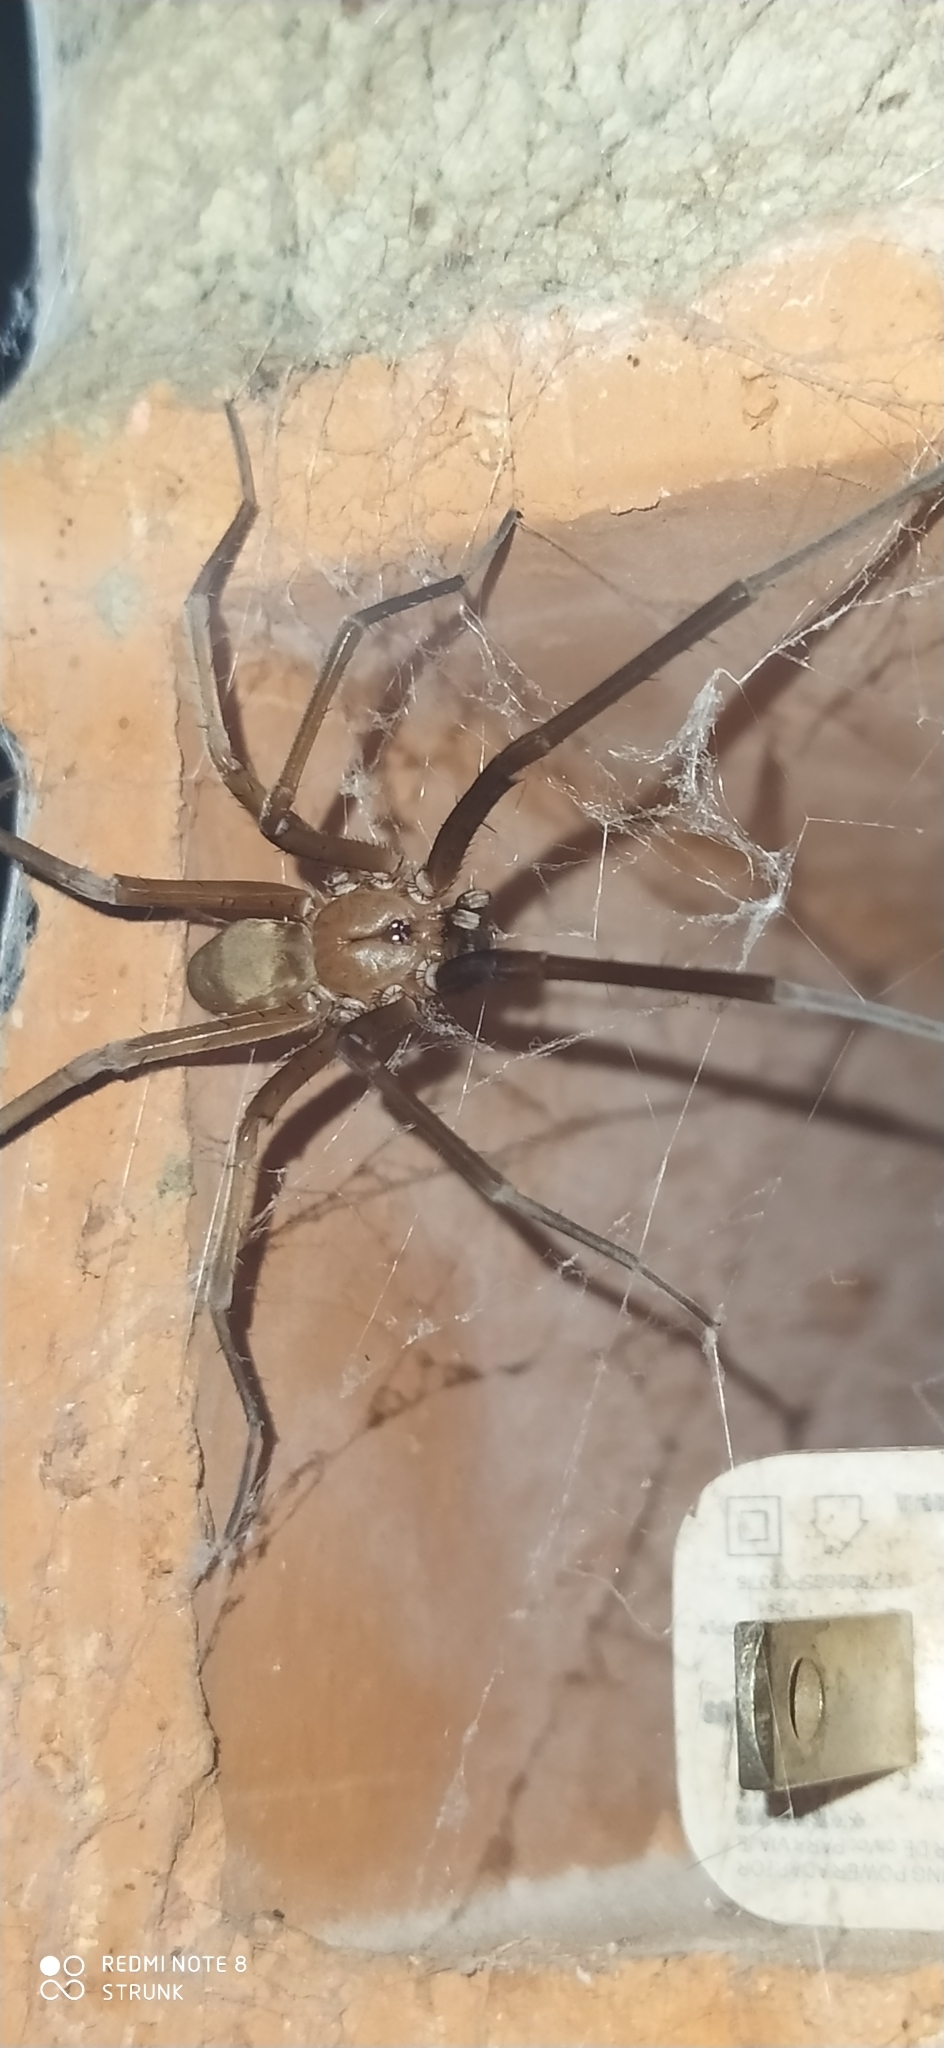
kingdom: Animalia
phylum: Arthropoda
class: Arachnida
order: Araneae
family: Filistatidae
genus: Kukulcania
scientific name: Kukulcania hibernalis
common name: Crevice weaver
